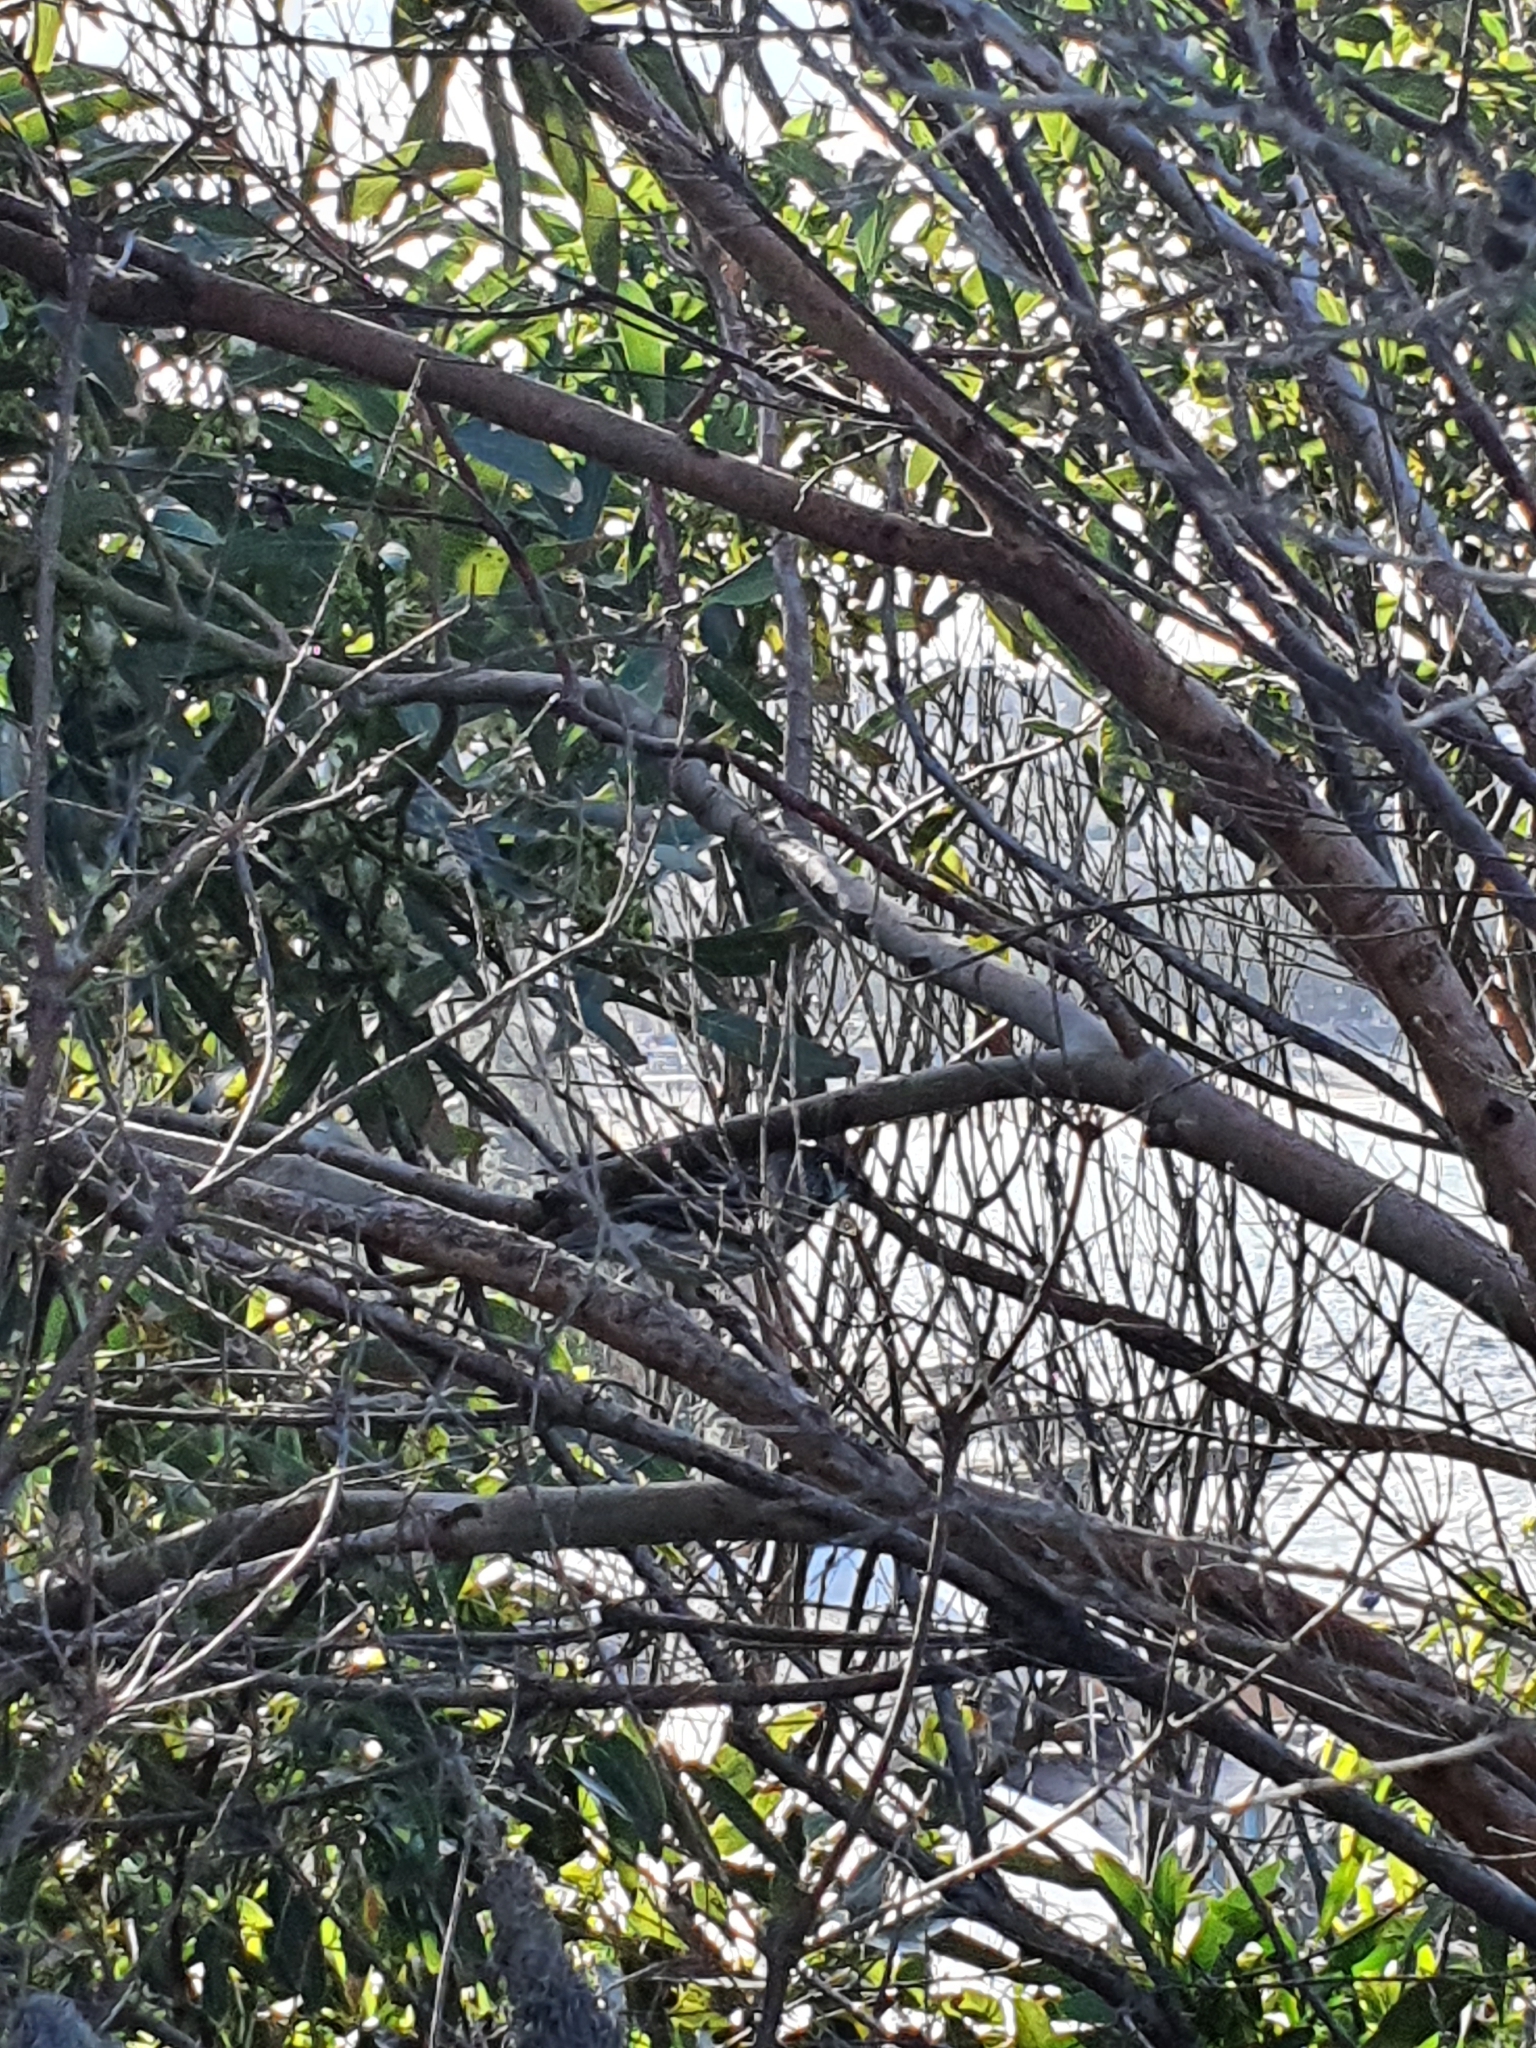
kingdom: Animalia
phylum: Chordata
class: Aves
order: Passeriformes
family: Meliphagidae
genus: Anthochaera
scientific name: Anthochaera carunculata
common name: Red wattlebird
